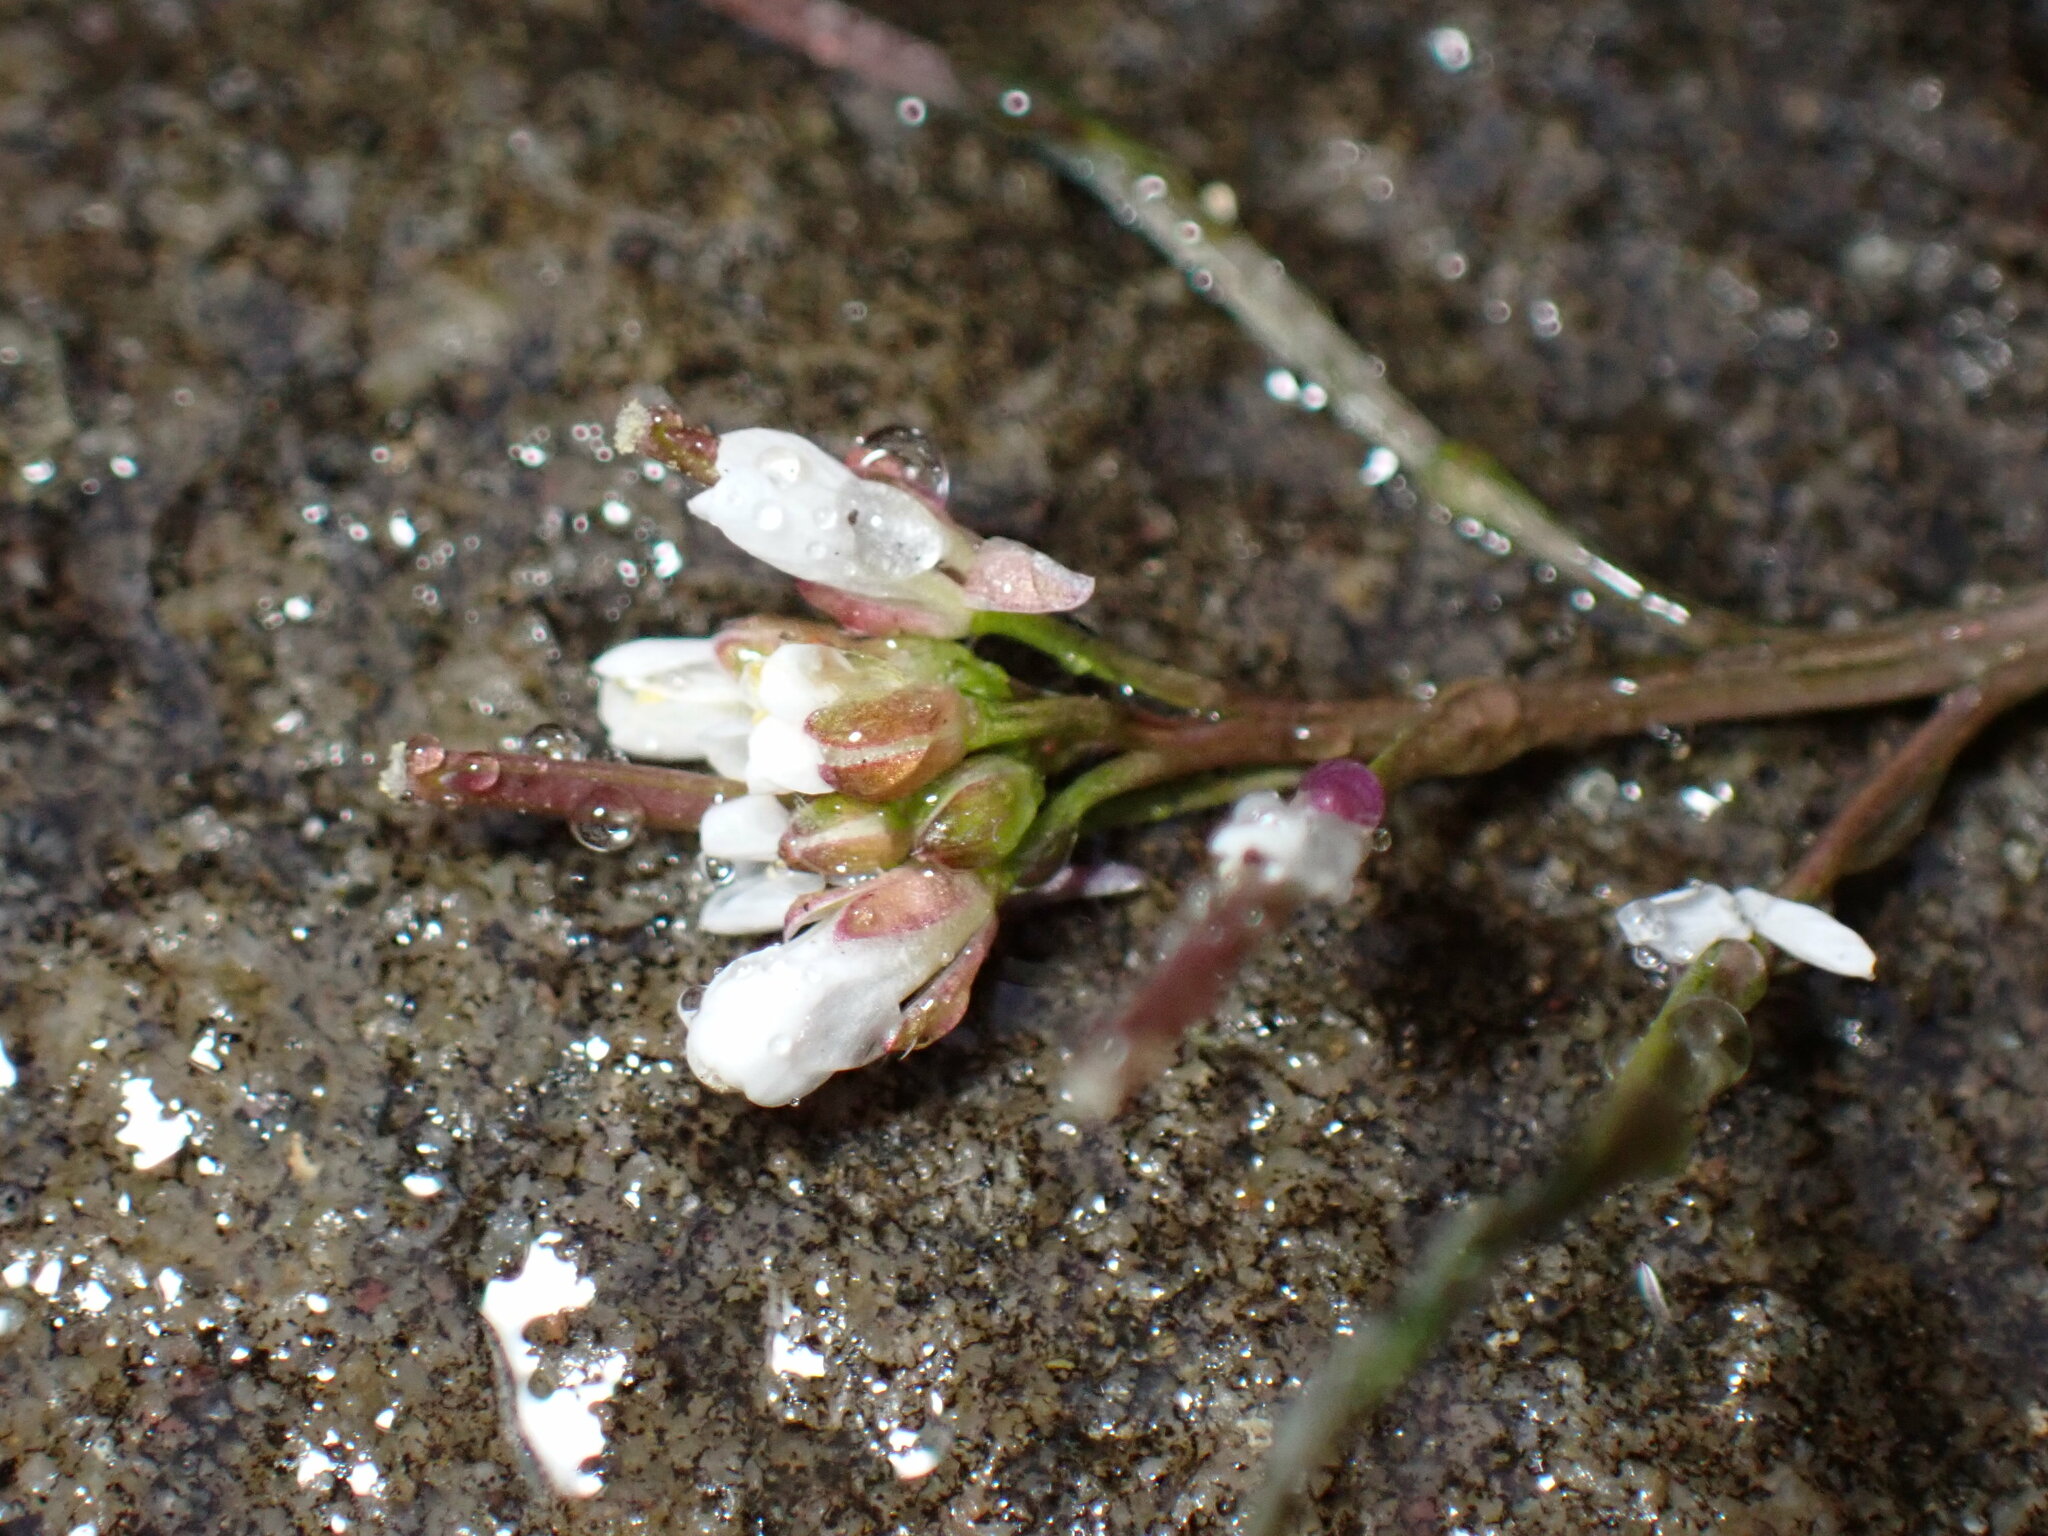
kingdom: Plantae
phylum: Tracheophyta
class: Magnoliopsida
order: Brassicales
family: Brassicaceae
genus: Cardamine
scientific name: Cardamine hirsuta
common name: Hairy bittercress
